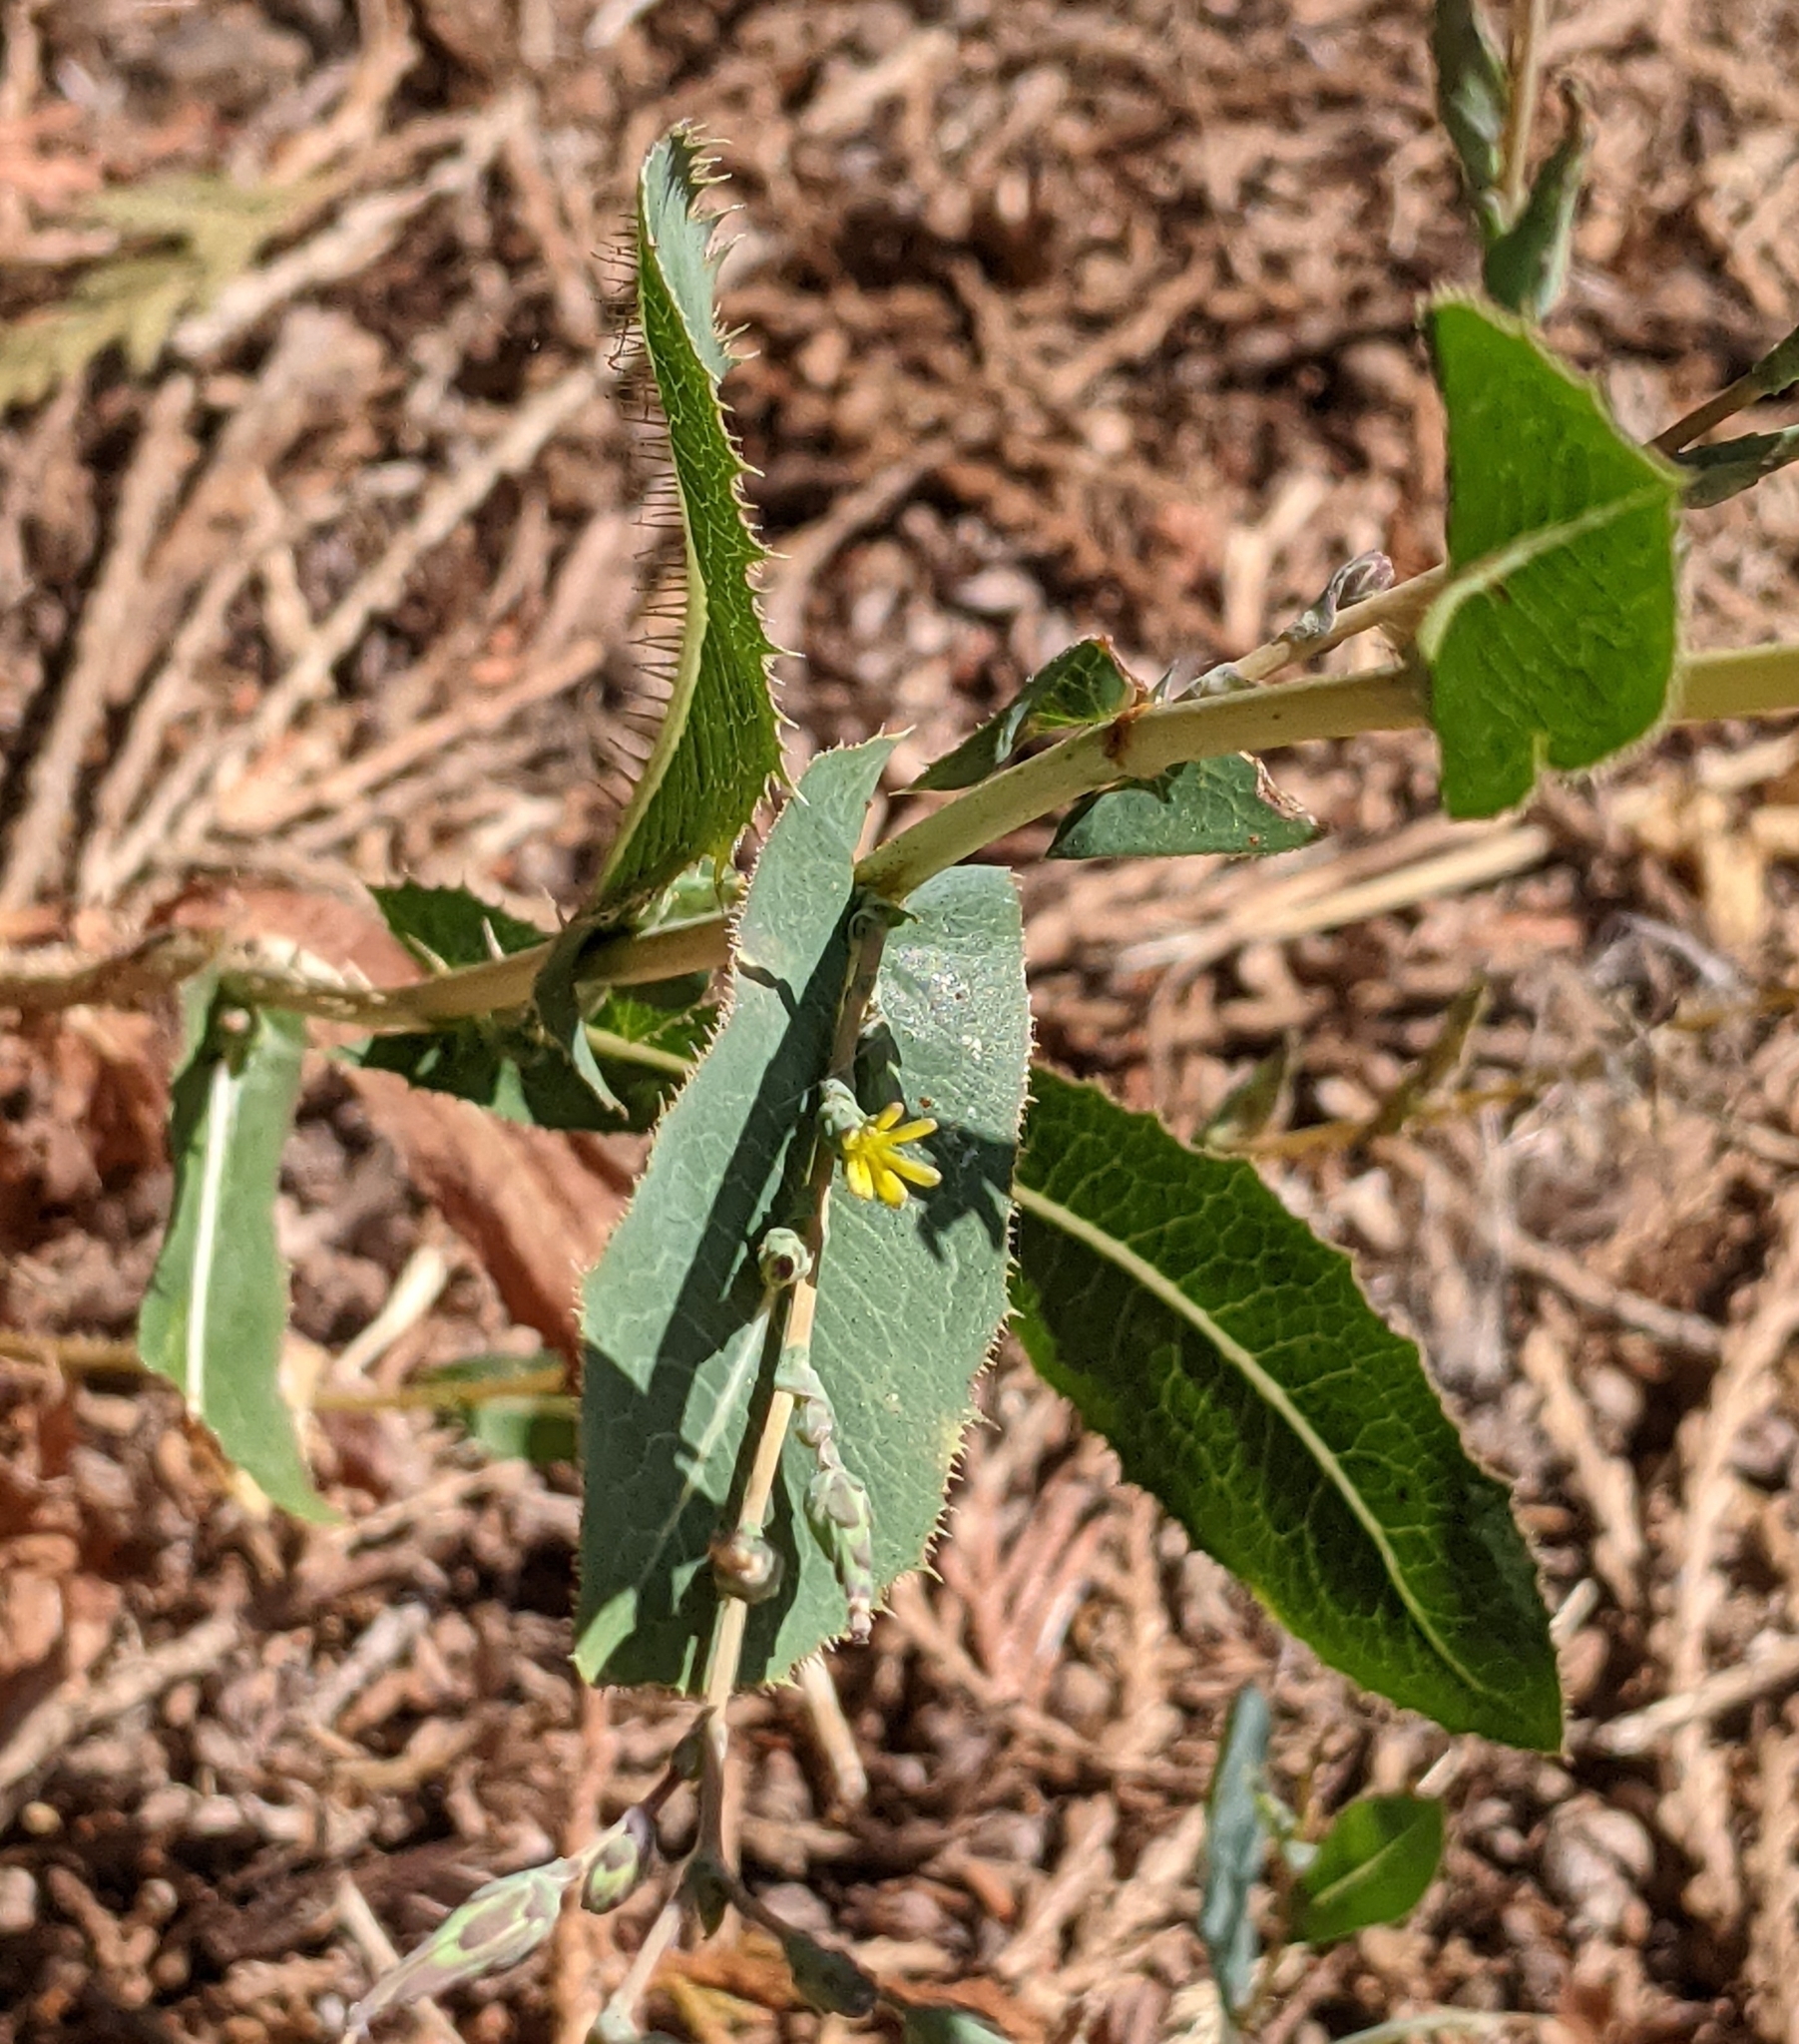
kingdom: Plantae
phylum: Tracheophyta
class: Magnoliopsida
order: Asterales
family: Asteraceae
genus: Lactuca
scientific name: Lactuca serriola
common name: Prickly lettuce
